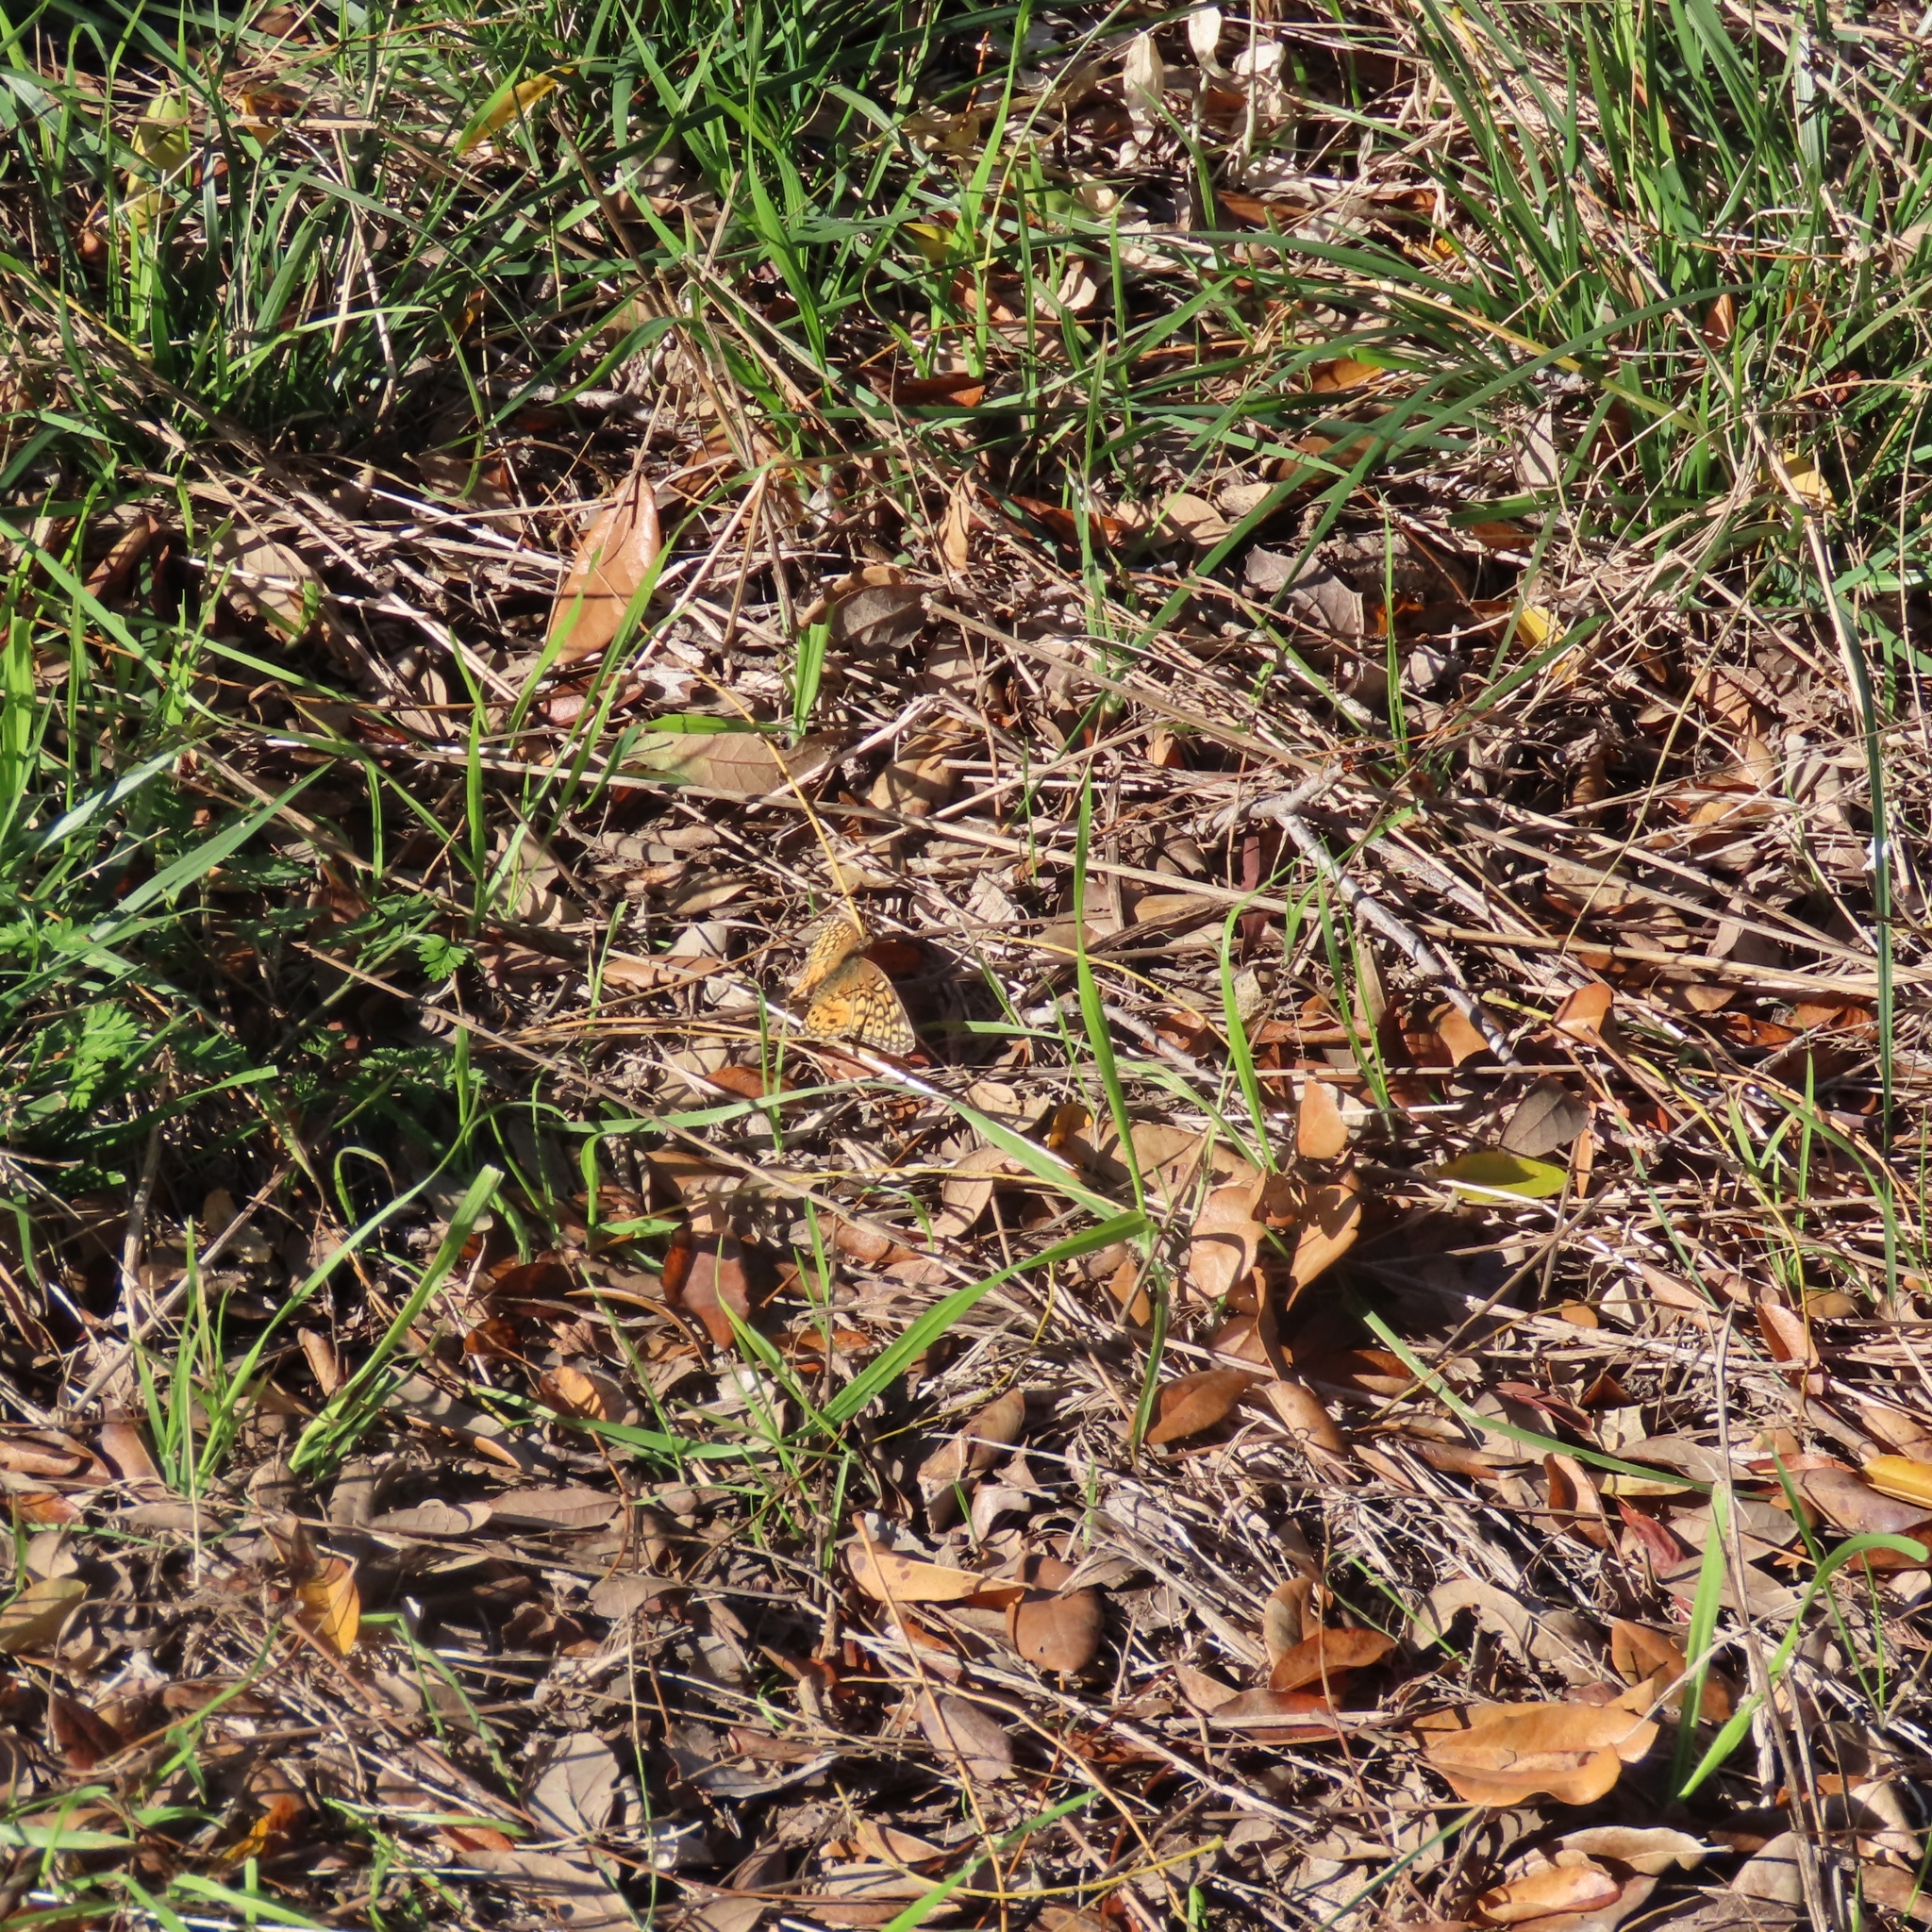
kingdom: Animalia
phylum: Arthropoda
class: Insecta
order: Lepidoptera
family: Nymphalidae
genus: Euptoieta
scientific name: Euptoieta claudia
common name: Variegated fritillary
